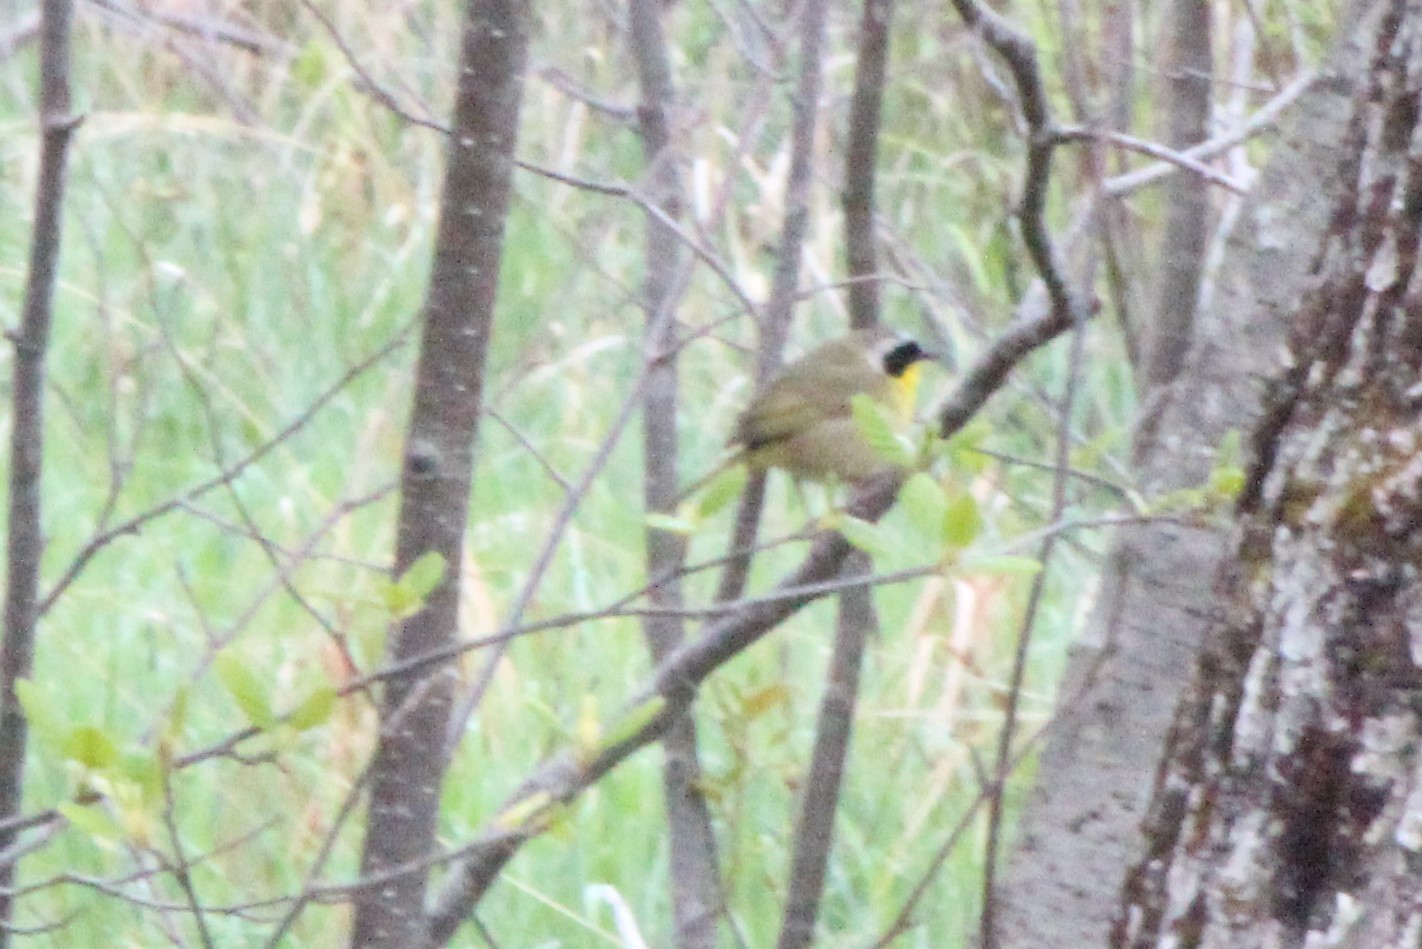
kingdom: Animalia
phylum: Chordata
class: Aves
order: Passeriformes
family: Parulidae
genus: Geothlypis
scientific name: Geothlypis trichas
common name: Common yellowthroat
